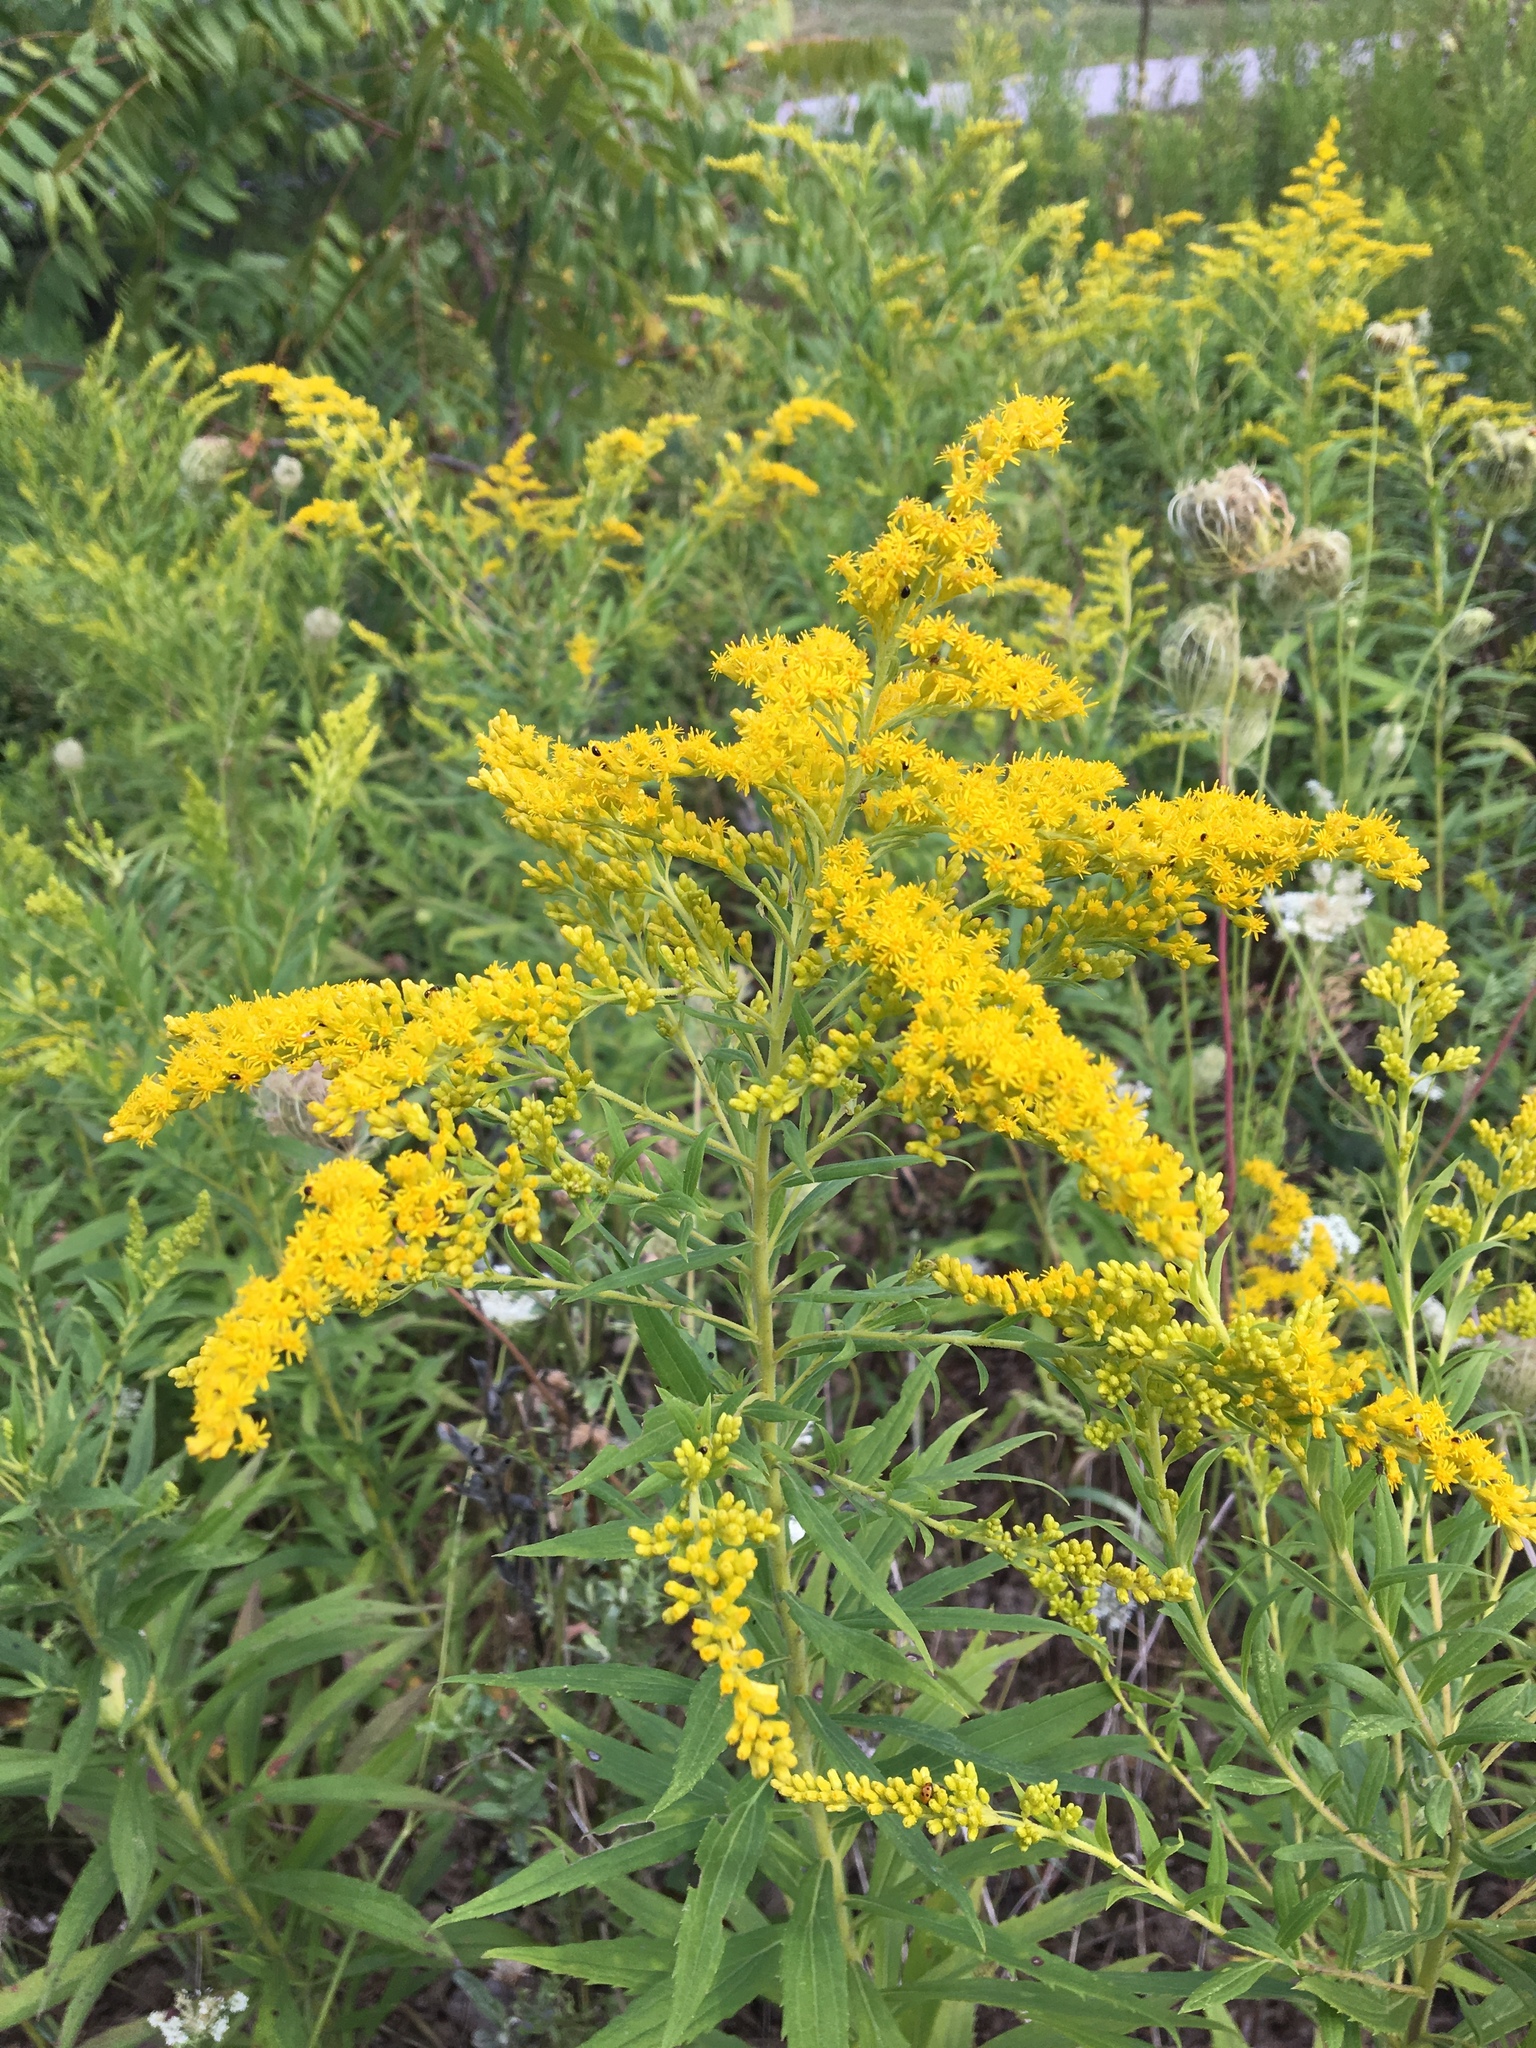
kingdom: Plantae
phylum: Tracheophyta
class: Magnoliopsida
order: Asterales
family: Asteraceae
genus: Solidago
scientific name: Solidago canadensis
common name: Canada goldenrod
